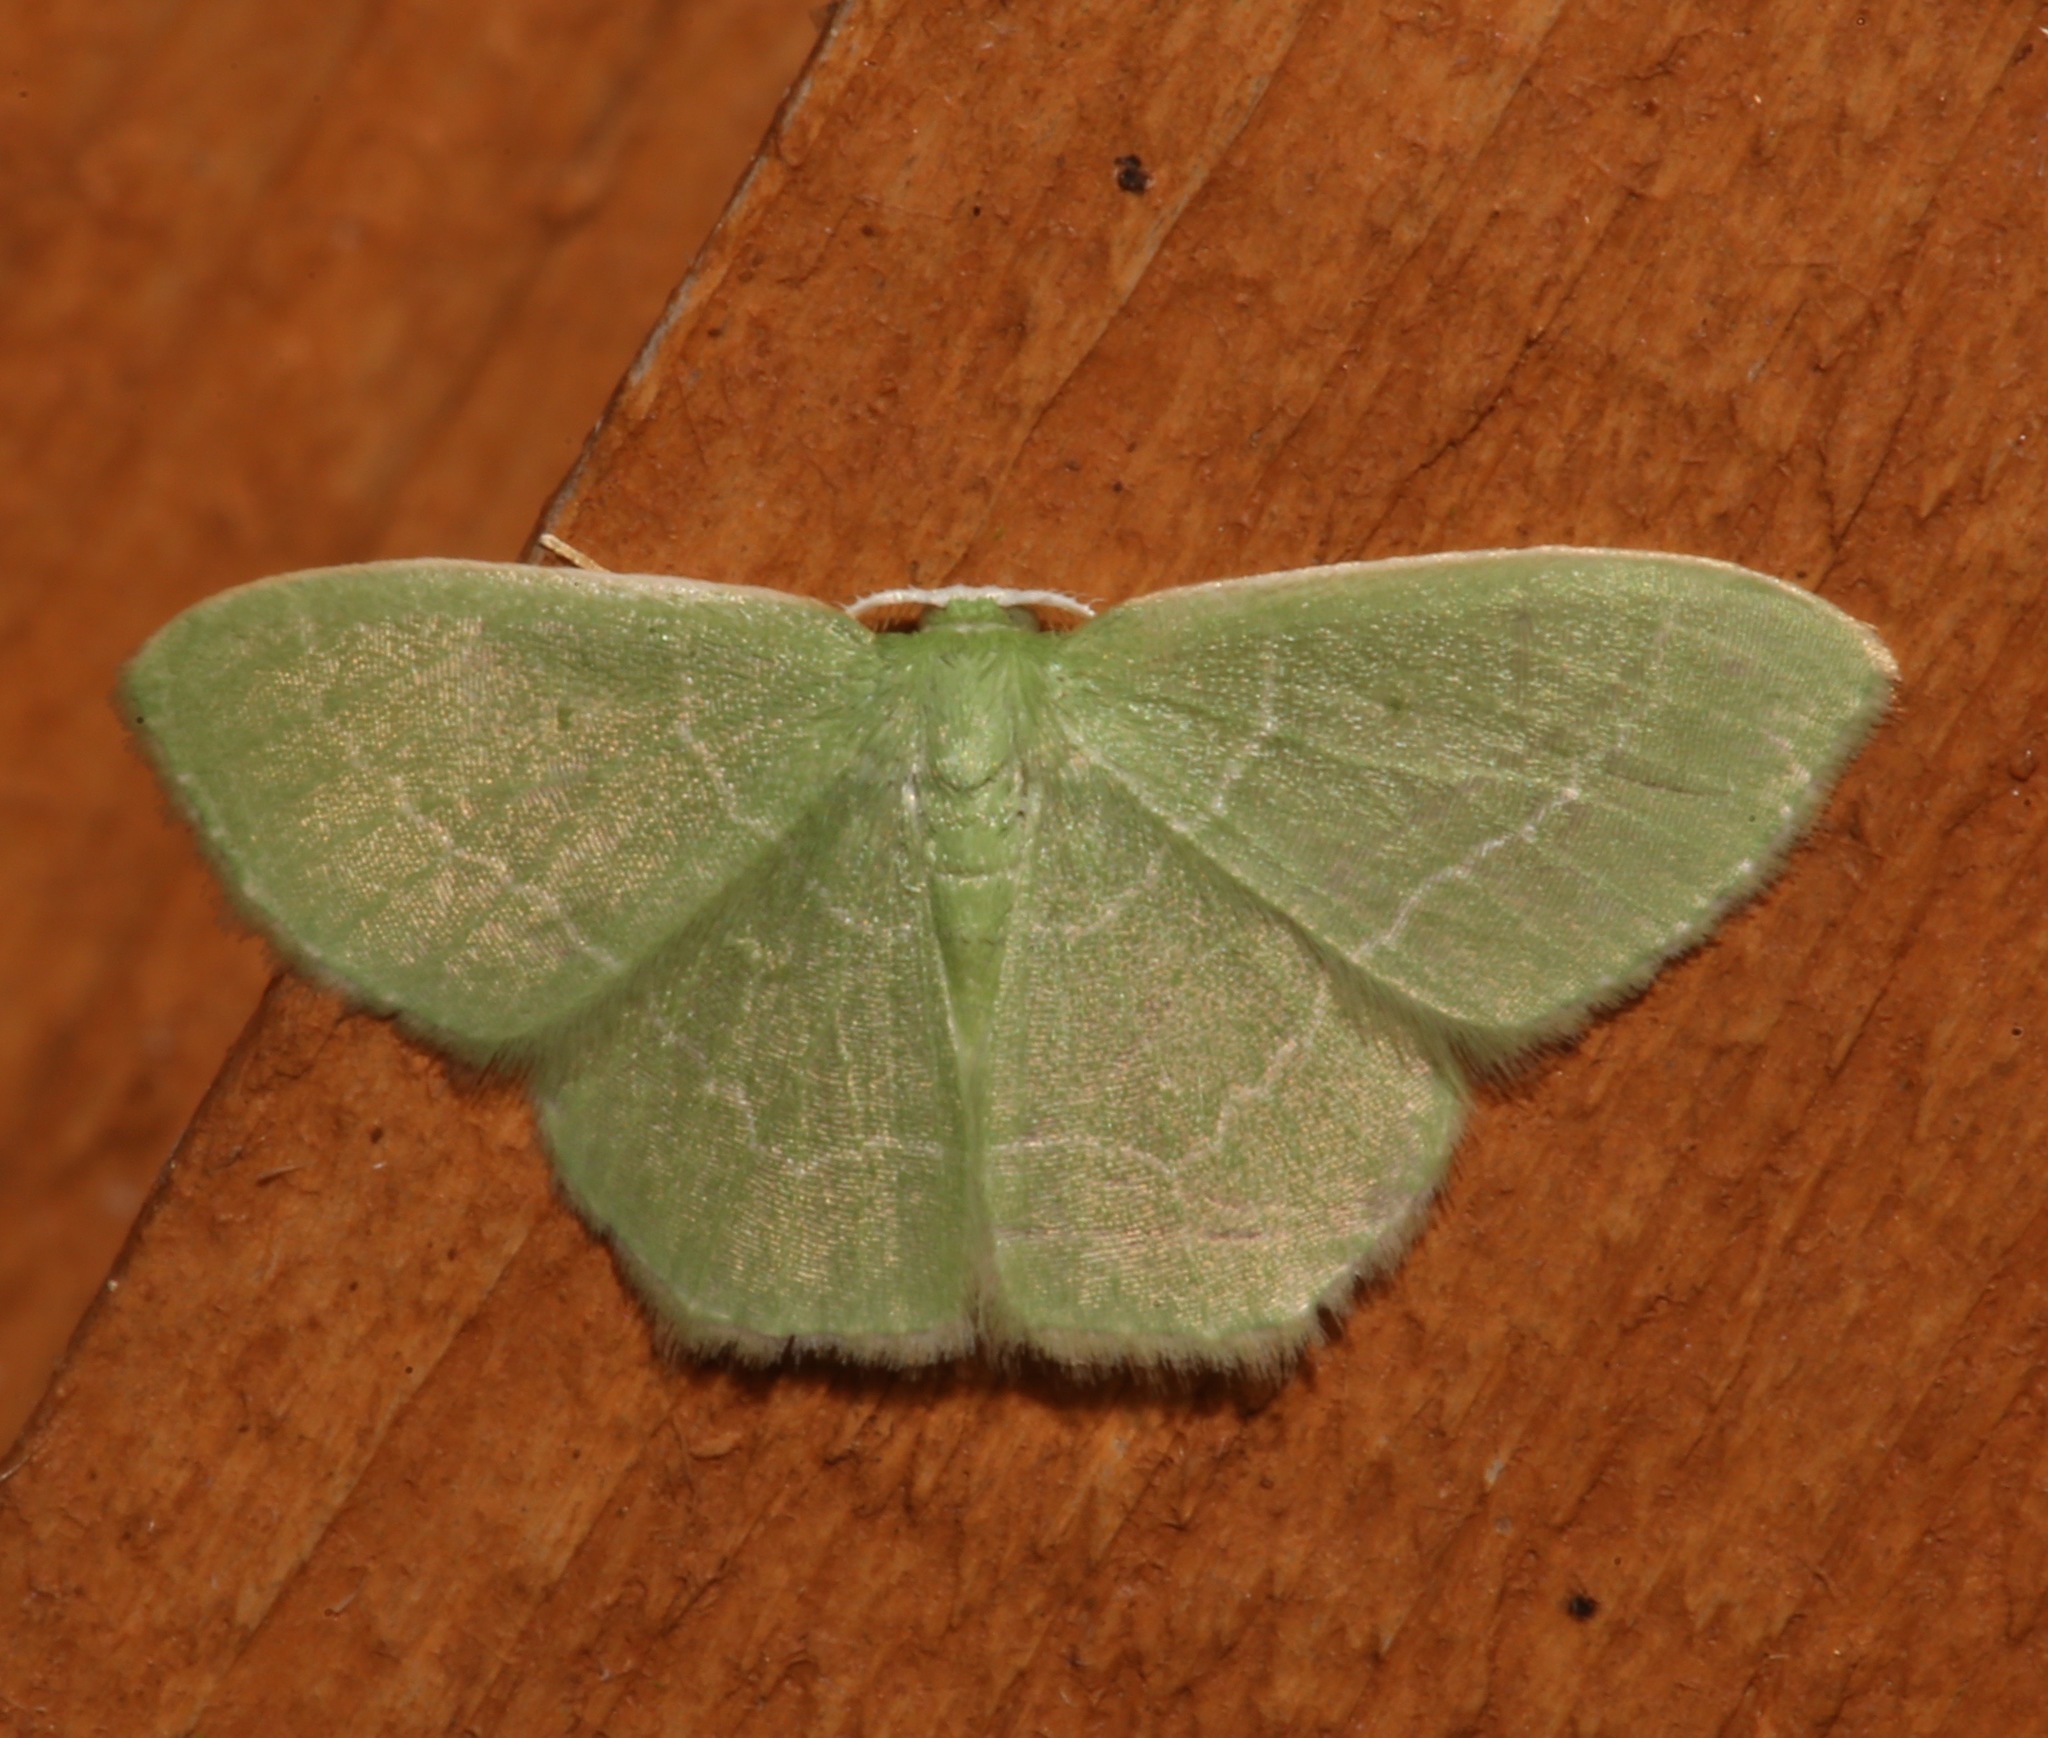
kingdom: Animalia
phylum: Arthropoda
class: Insecta
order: Lepidoptera
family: Geometridae
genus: Nemoria
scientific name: Nemoria elfa
